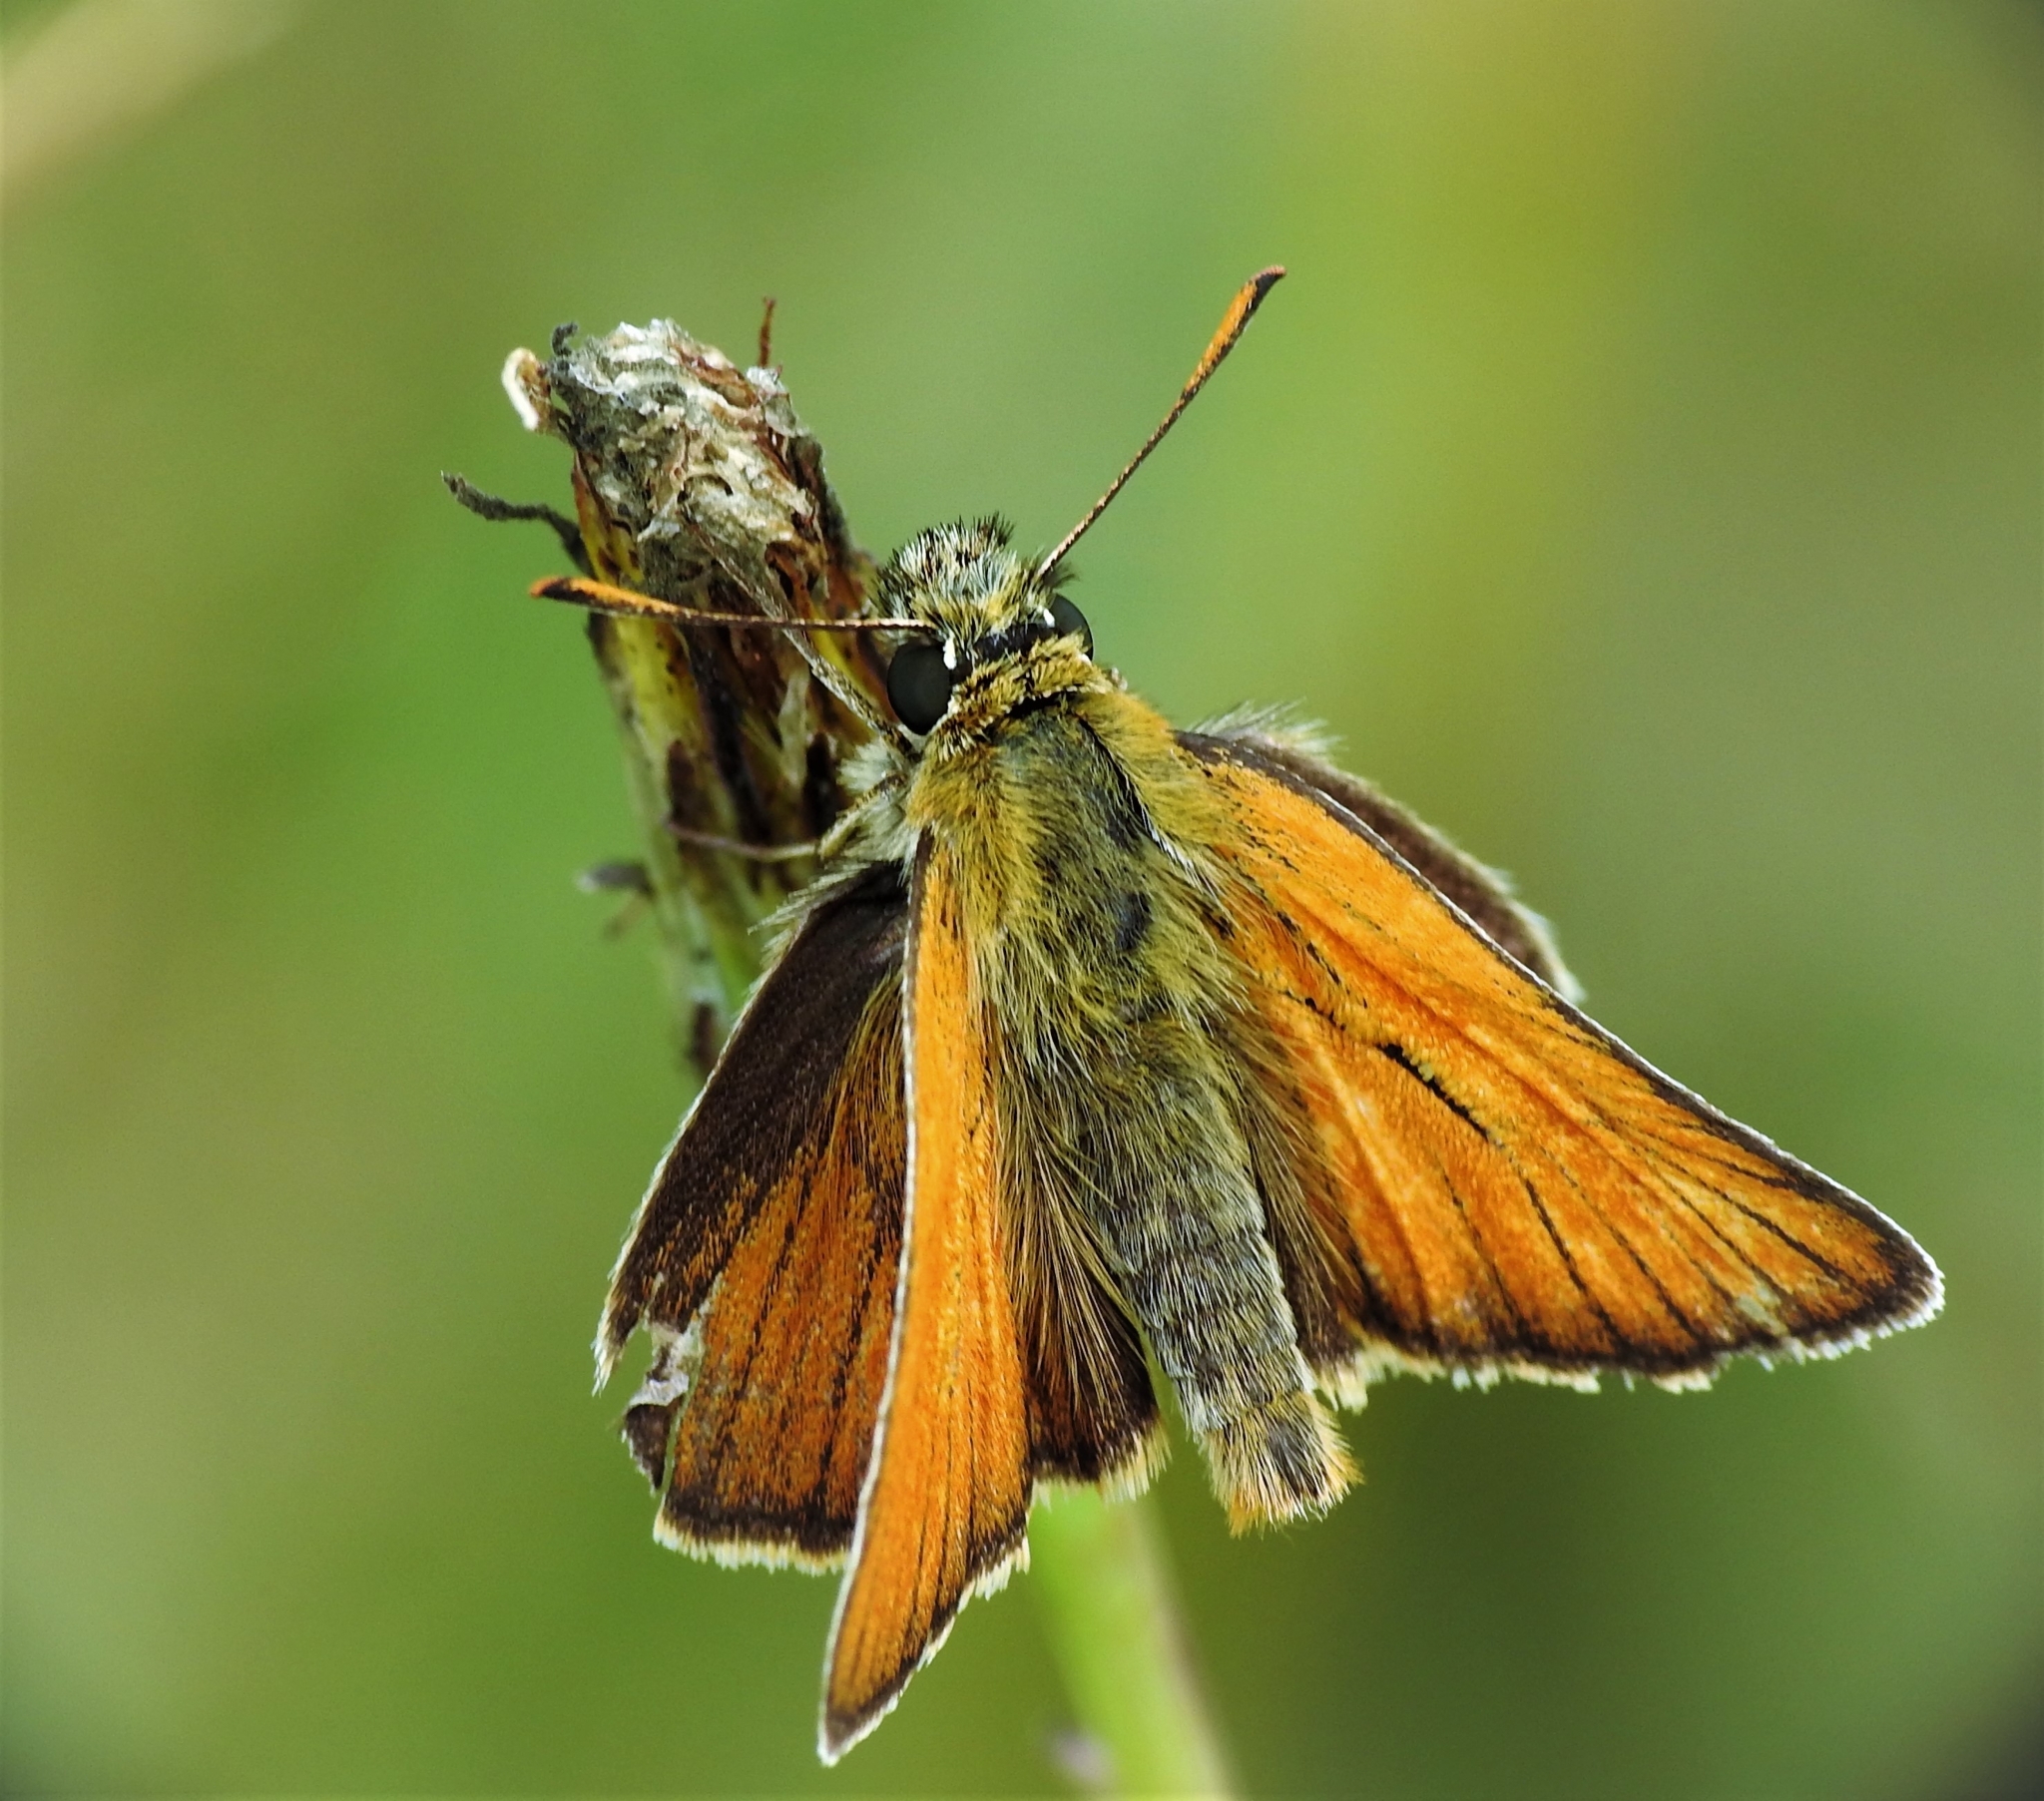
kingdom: Animalia
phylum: Arthropoda
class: Insecta
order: Lepidoptera
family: Hesperiidae
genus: Thymelicus
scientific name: Thymelicus sylvestris
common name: Small skipper
